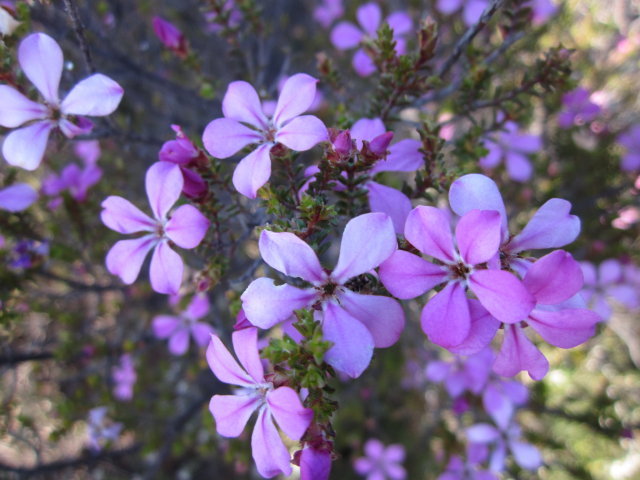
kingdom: Plantae
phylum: Tracheophyta
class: Magnoliopsida
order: Sapindales
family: Rutaceae
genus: Acmadenia
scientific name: Acmadenia sheilae
